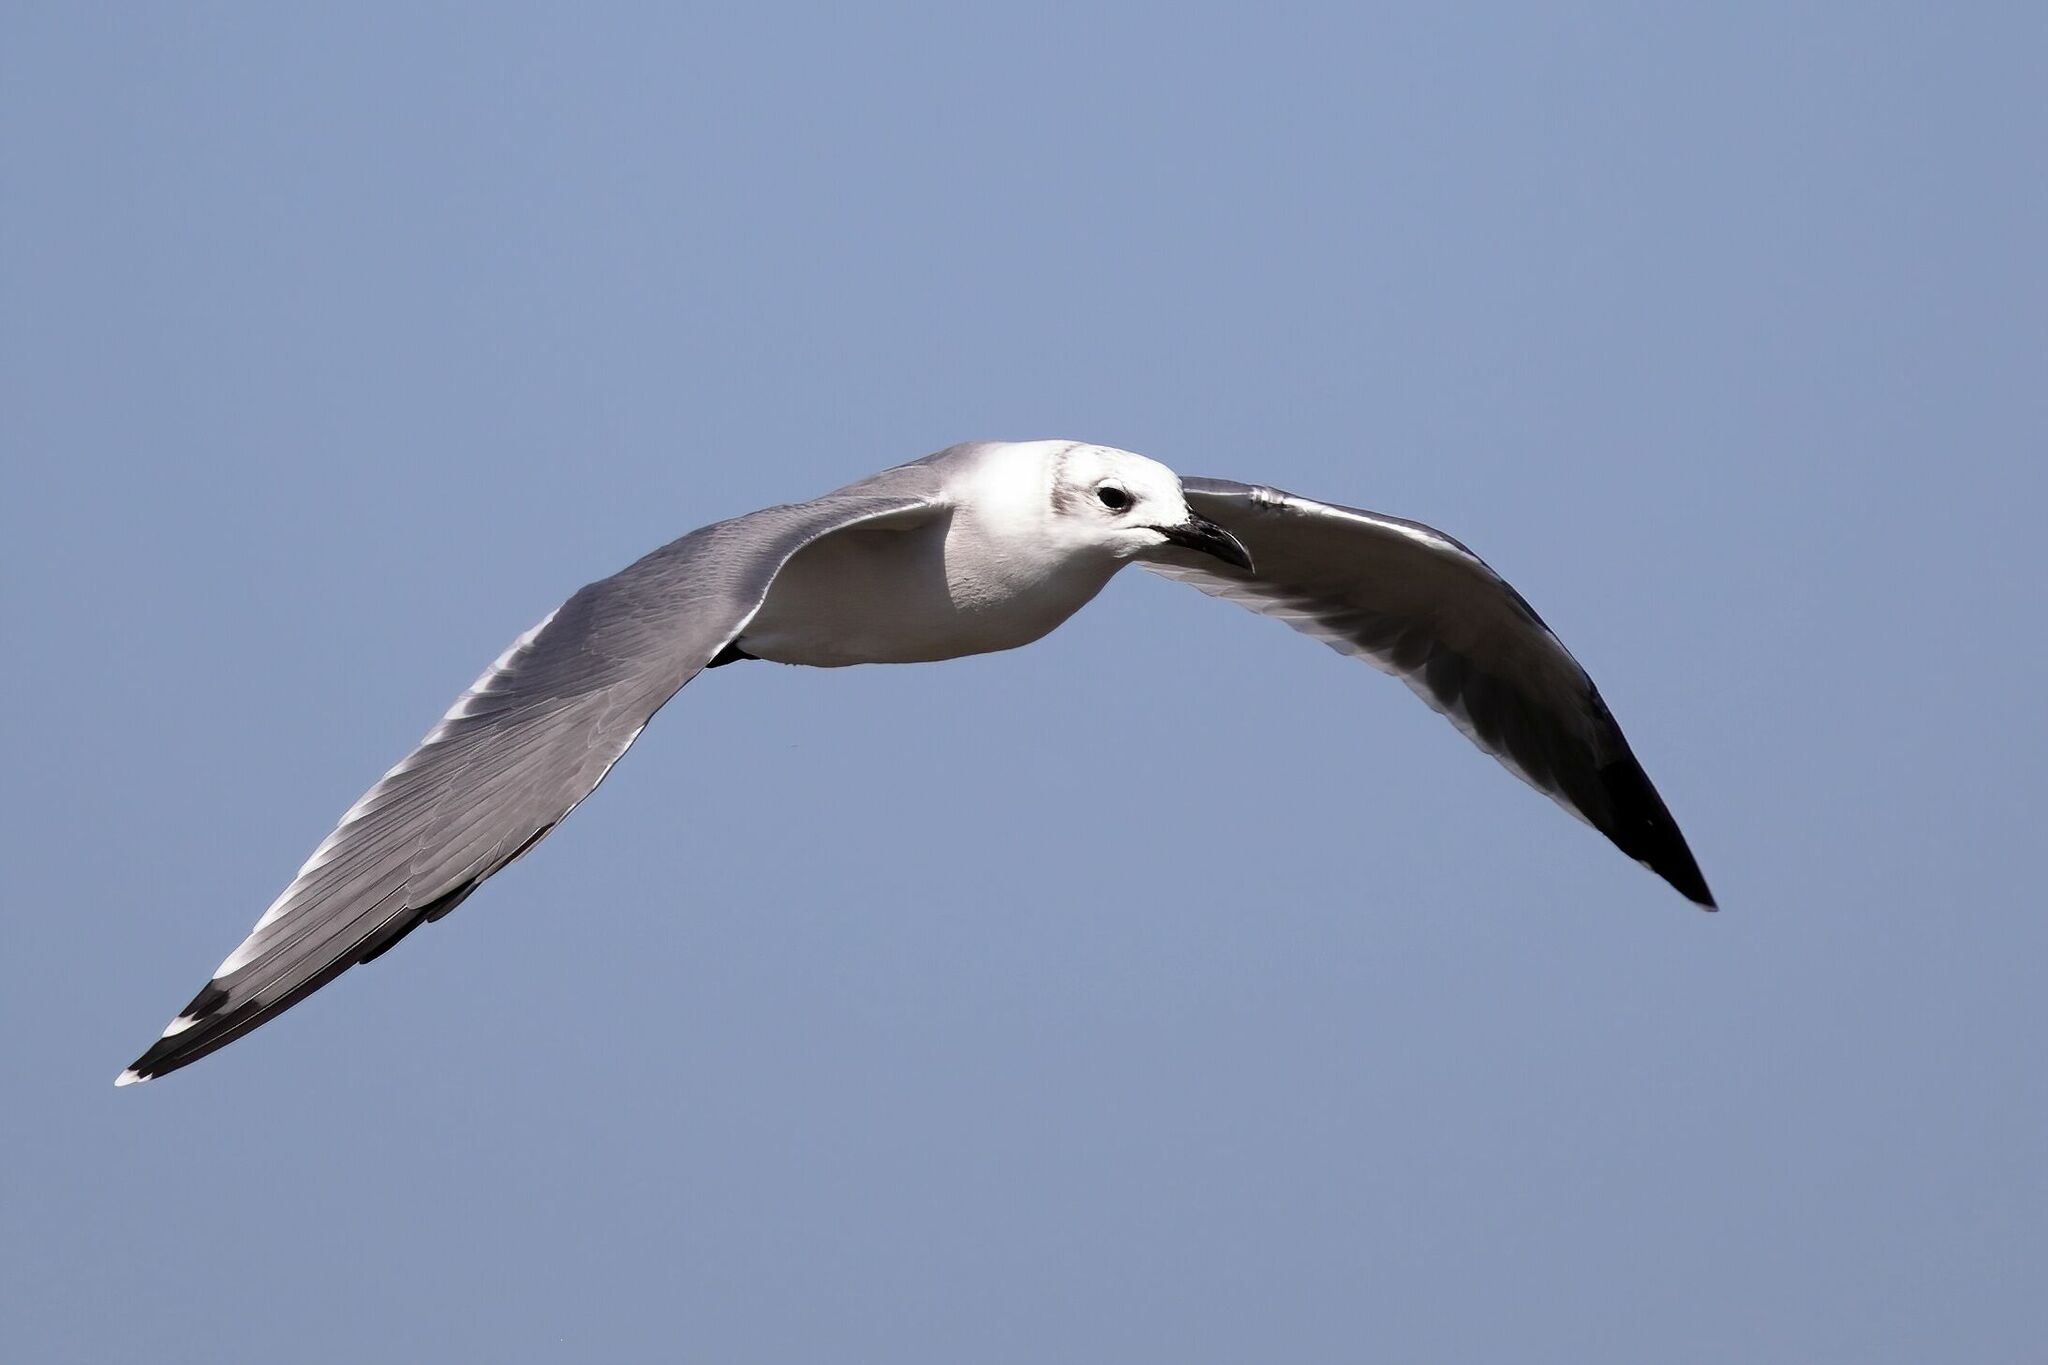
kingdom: Animalia
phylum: Chordata
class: Aves
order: Charadriiformes
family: Laridae
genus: Leucophaeus
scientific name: Leucophaeus atricilla
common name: Laughing gull
